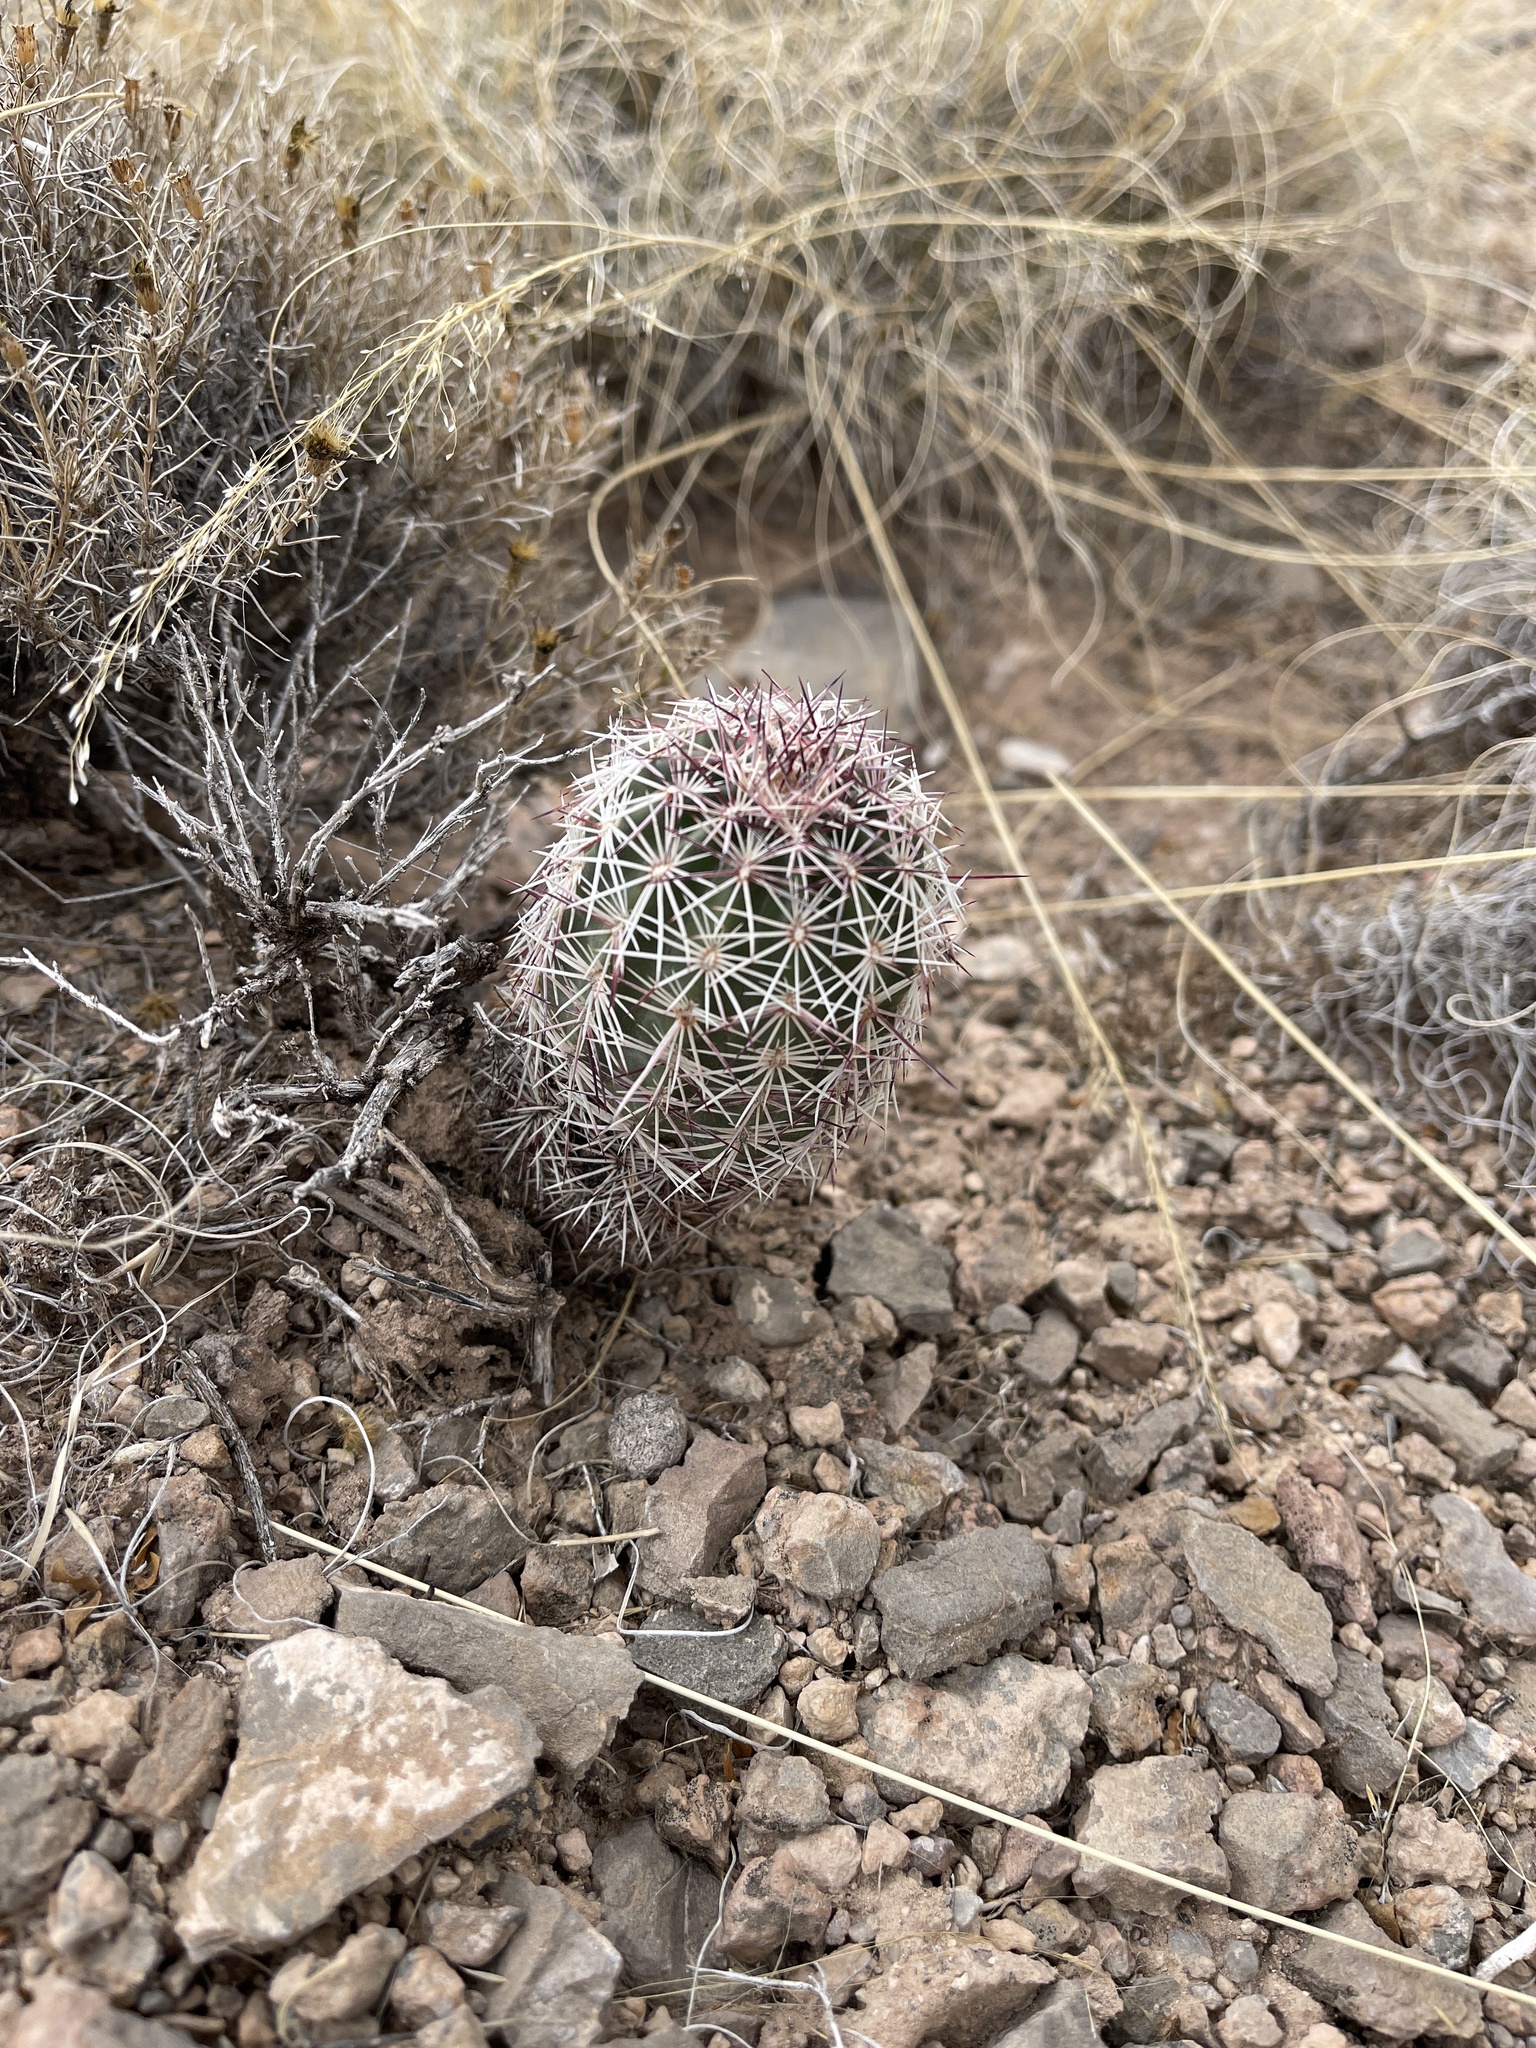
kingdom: Plantae
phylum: Tracheophyta
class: Magnoliopsida
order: Caryophyllales
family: Cactaceae
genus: Echinocereus
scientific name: Echinocereus viridiflorus
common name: Nylon hedgehog cactus
